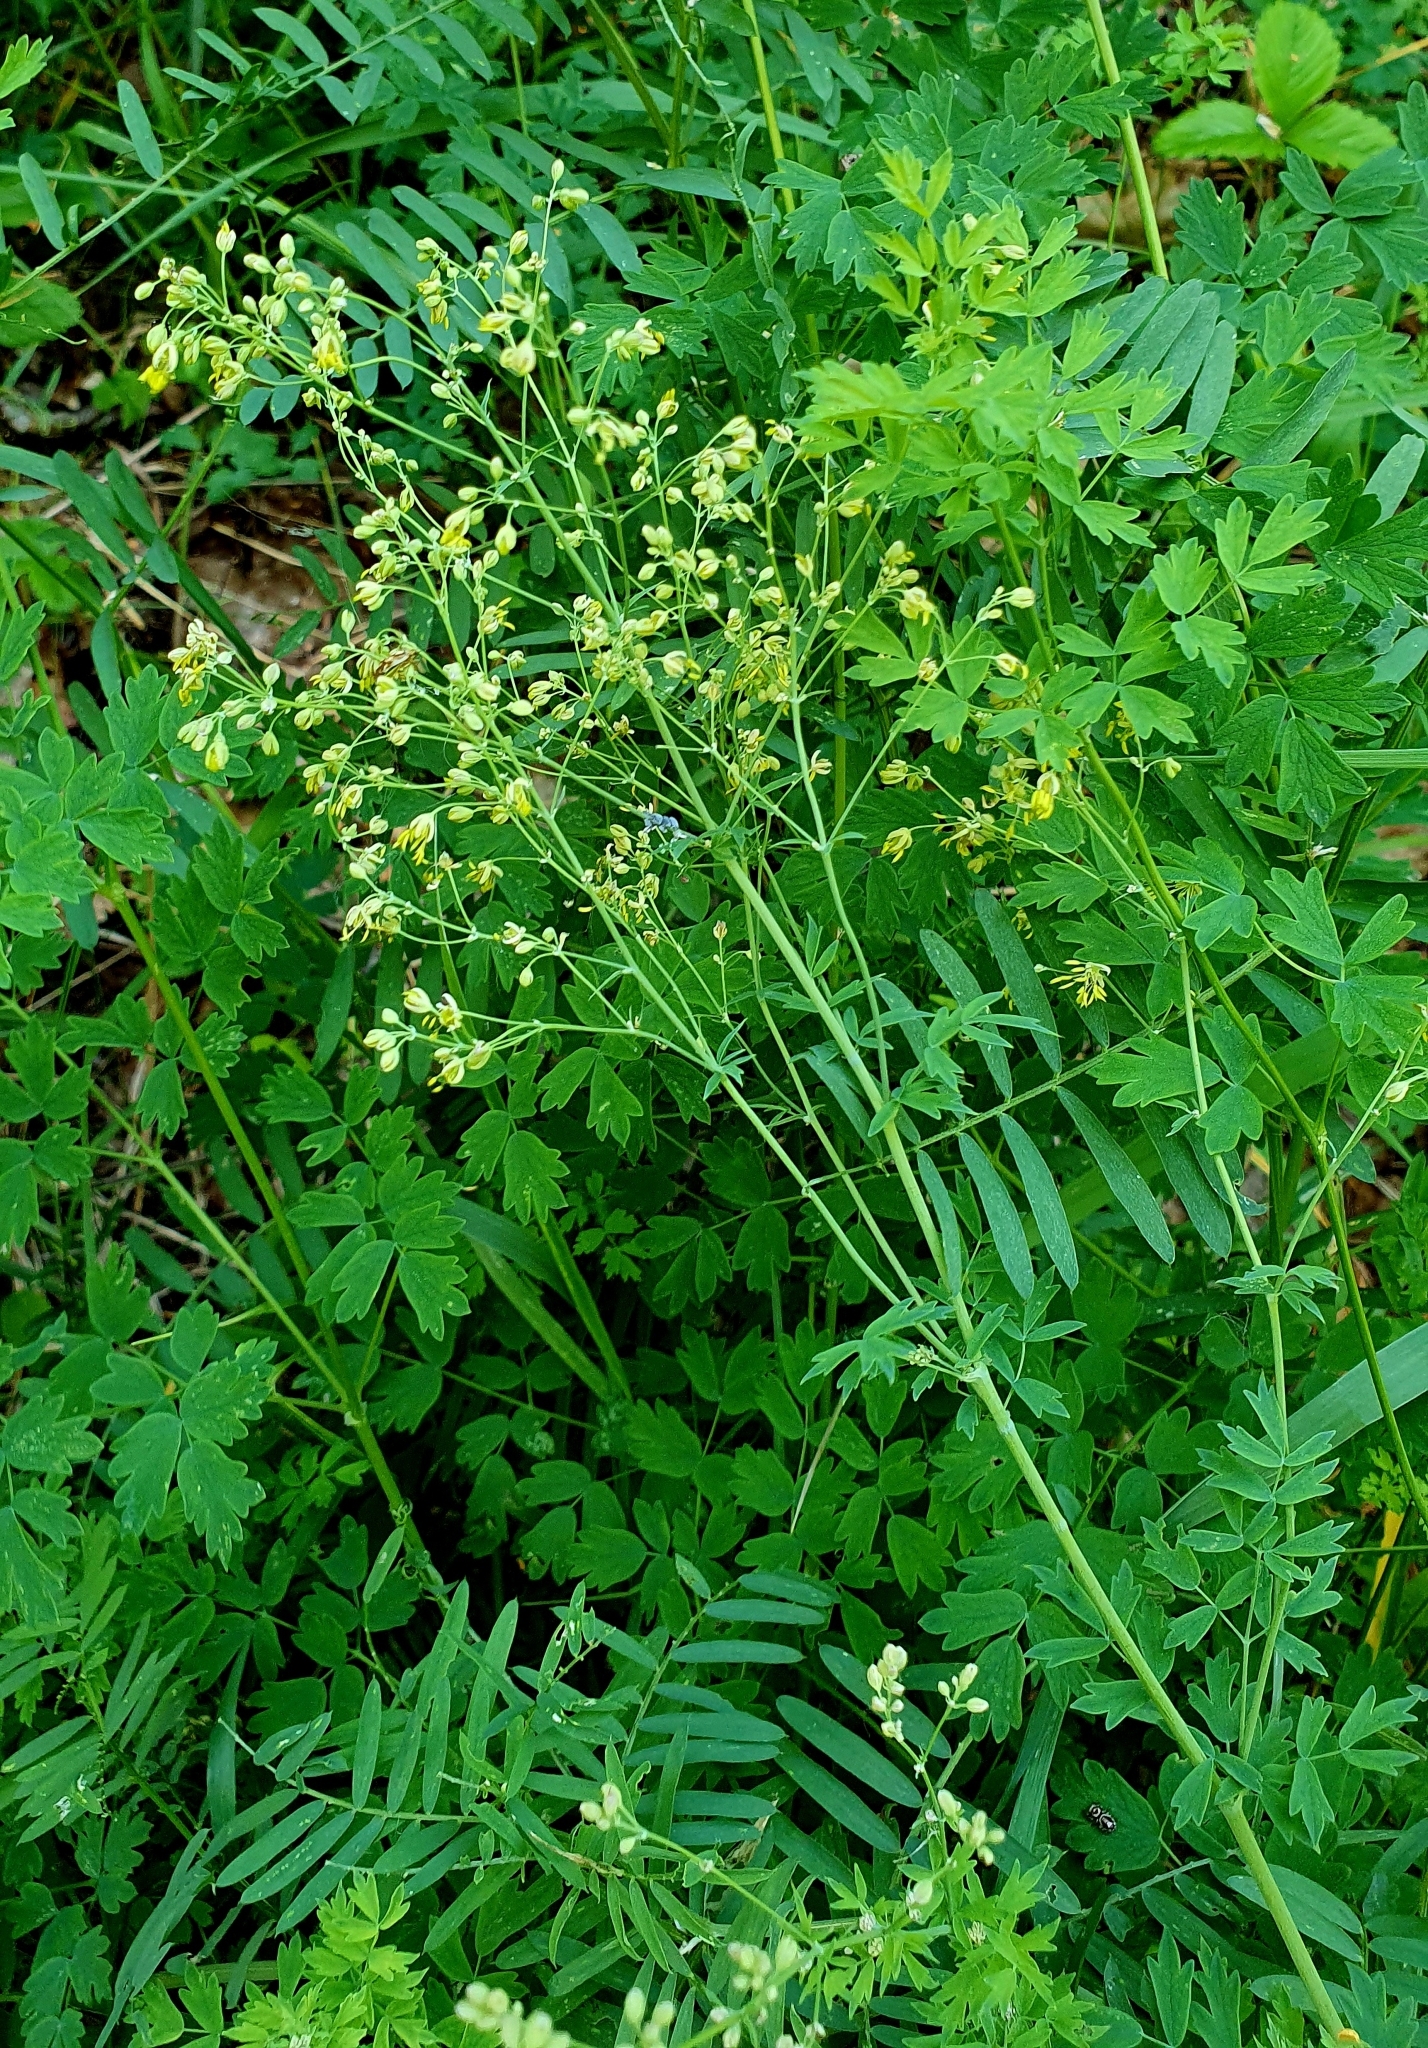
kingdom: Plantae
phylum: Tracheophyta
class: Magnoliopsida
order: Ranunculales
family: Ranunculaceae
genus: Thalictrum
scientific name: Thalictrum minus
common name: Lesser meadow-rue
